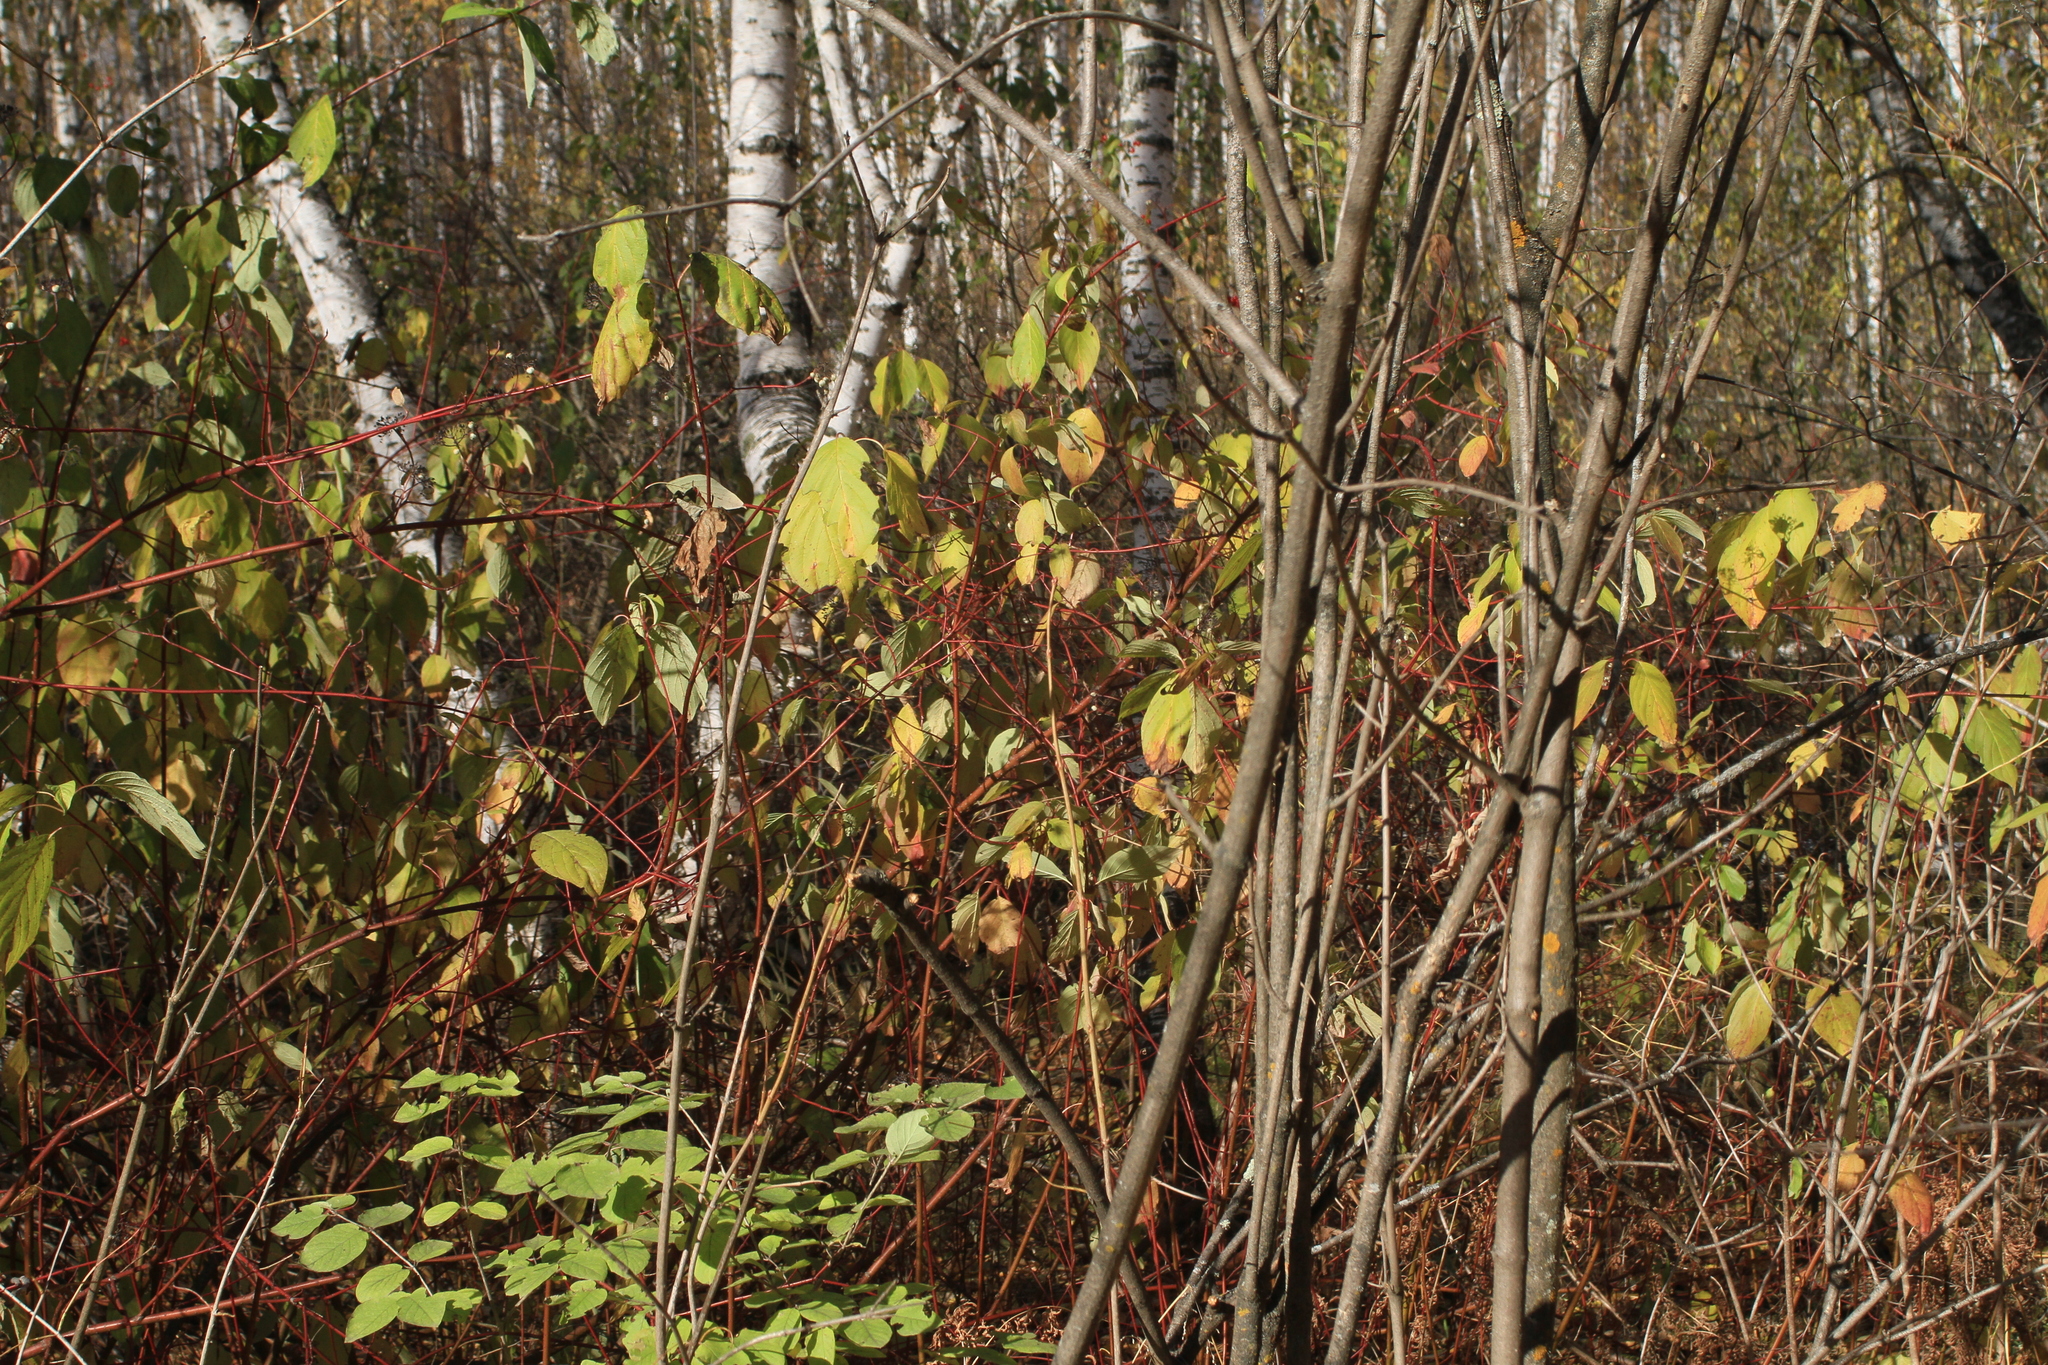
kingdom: Plantae
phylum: Tracheophyta
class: Magnoliopsida
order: Cornales
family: Cornaceae
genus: Cornus
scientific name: Cornus alba
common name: White dogwood
